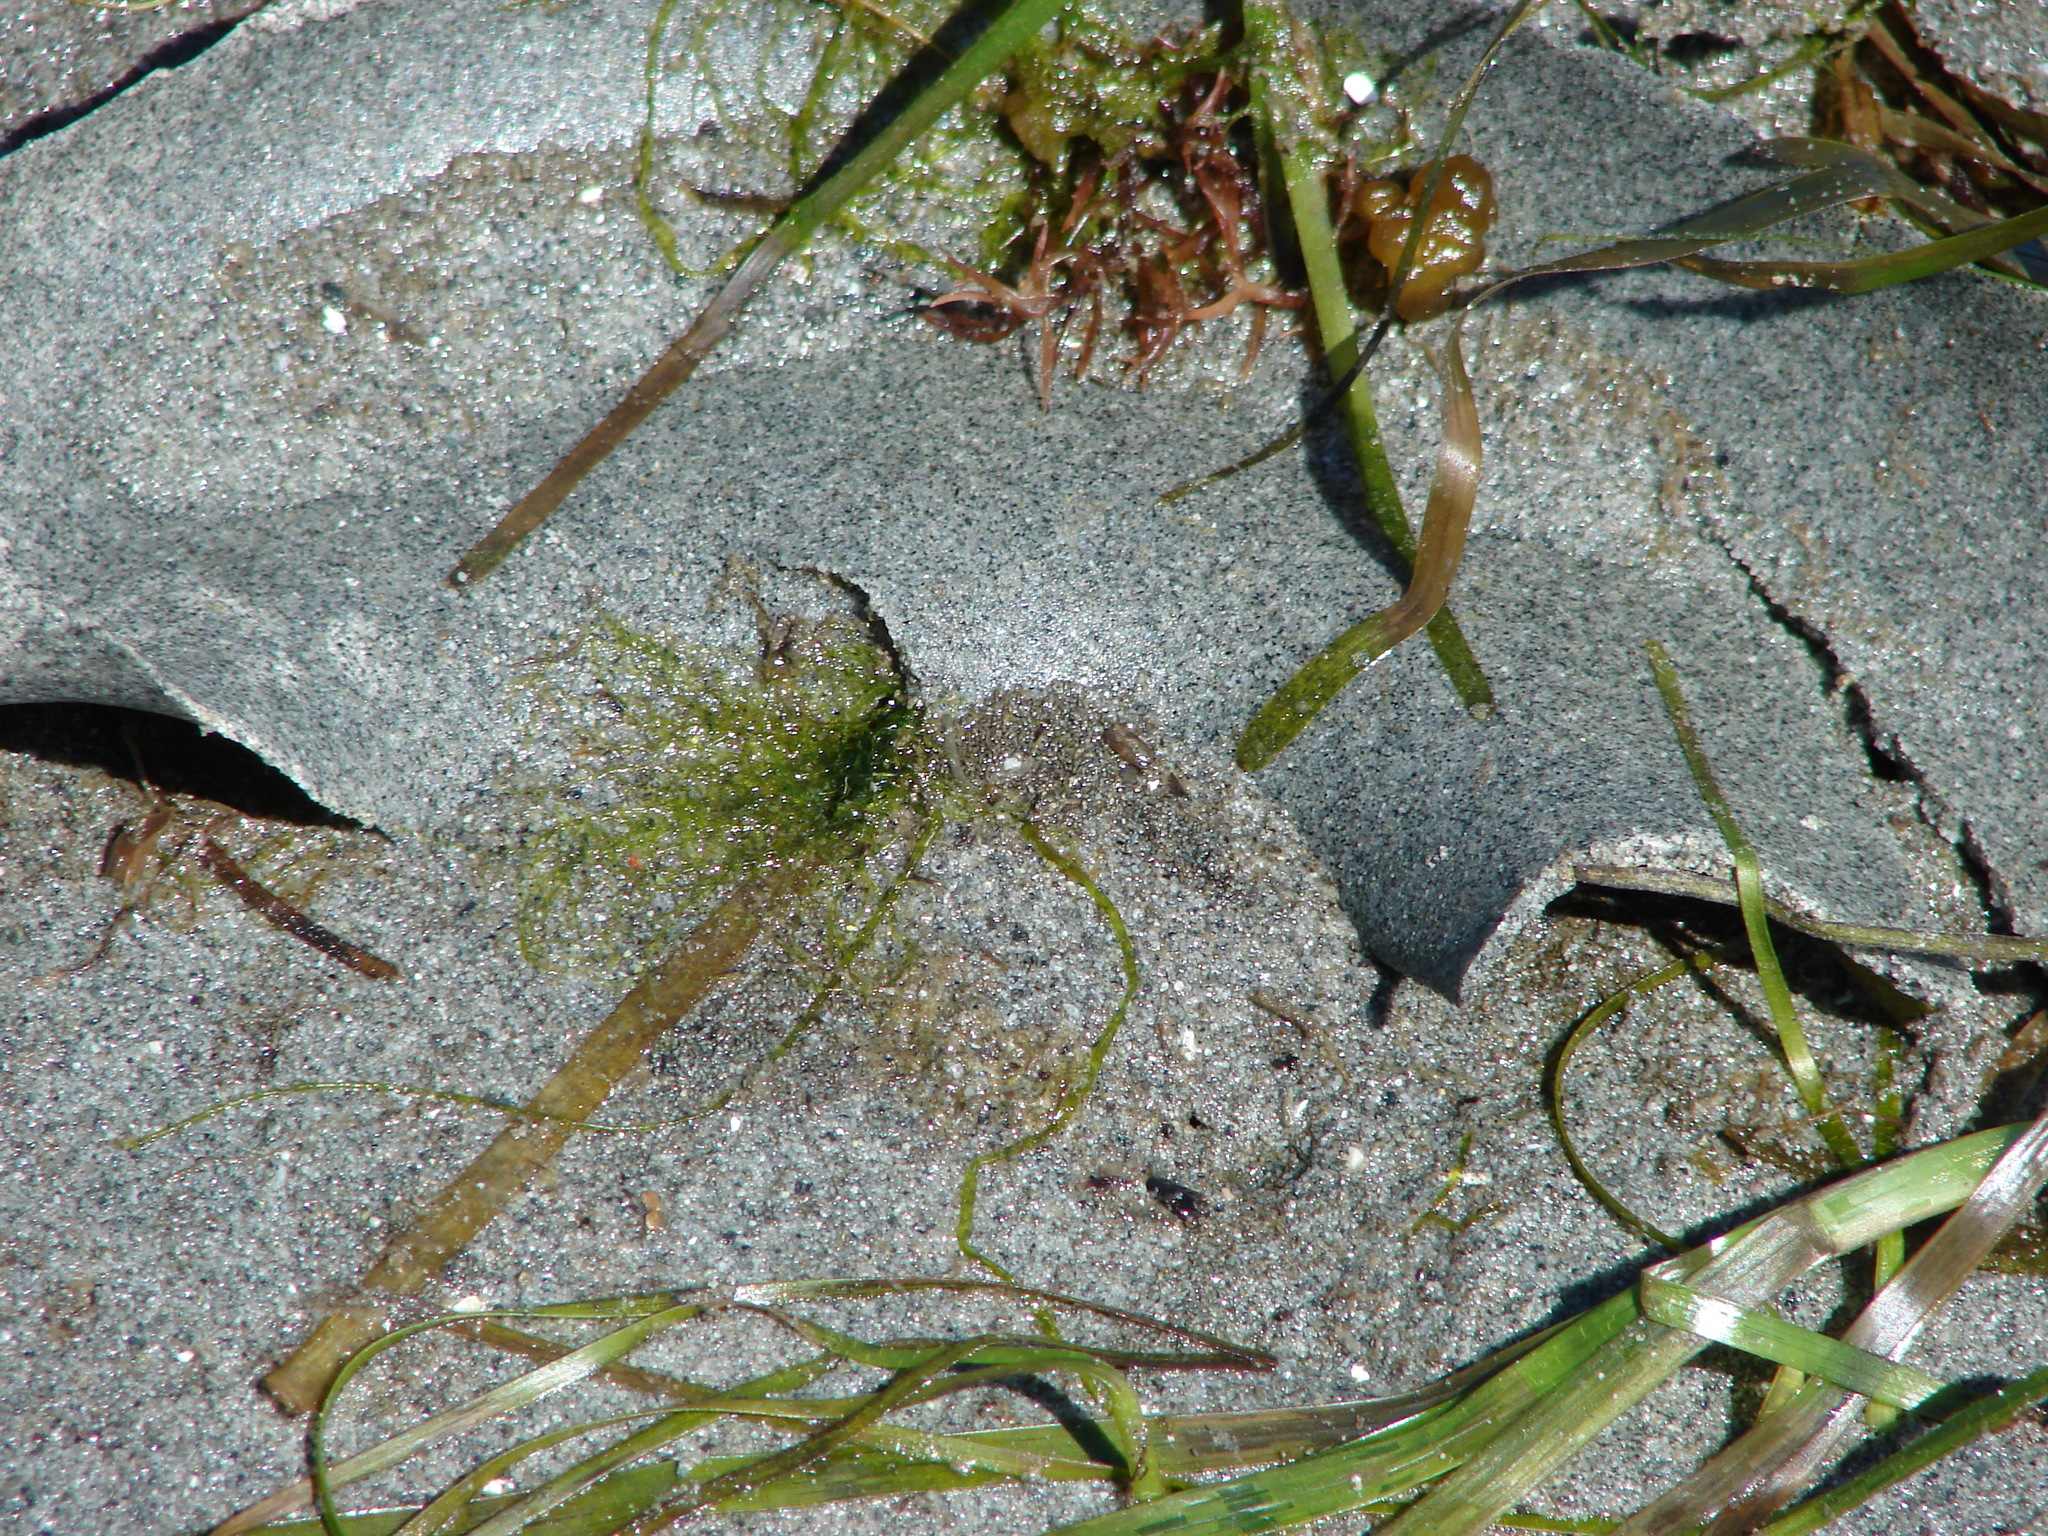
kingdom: Animalia
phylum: Mollusca
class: Gastropoda
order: Littorinimorpha
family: Naticidae
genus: Neverita
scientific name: Neverita lewisii
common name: Lewis' moonsnail
